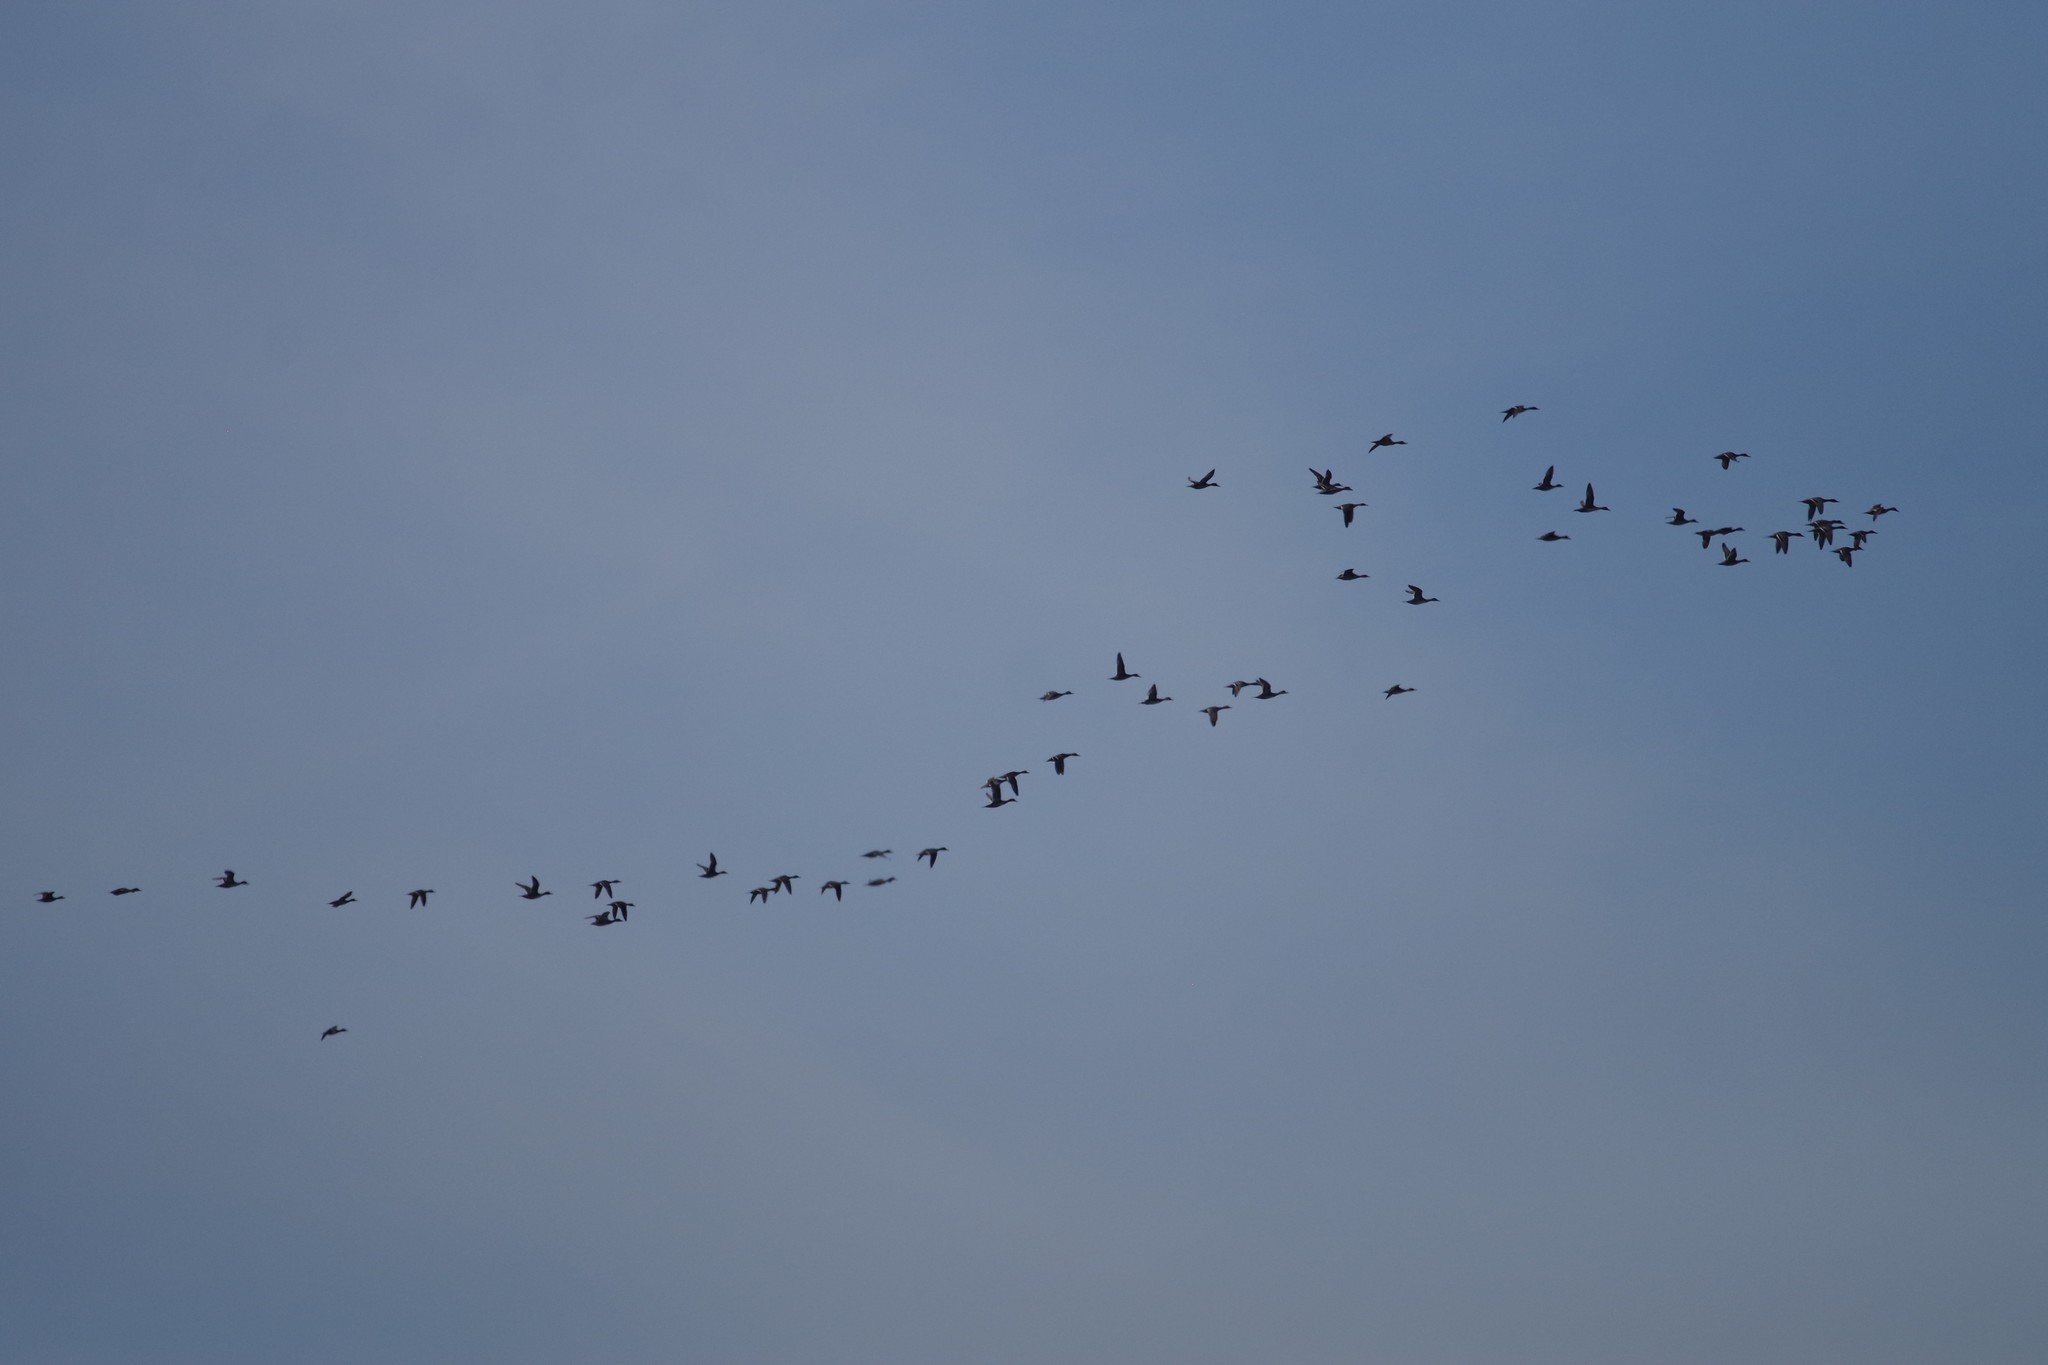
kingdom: Animalia
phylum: Chordata
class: Aves
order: Anseriformes
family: Anatidae
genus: Anas
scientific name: Anas acuta
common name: Northern pintail
